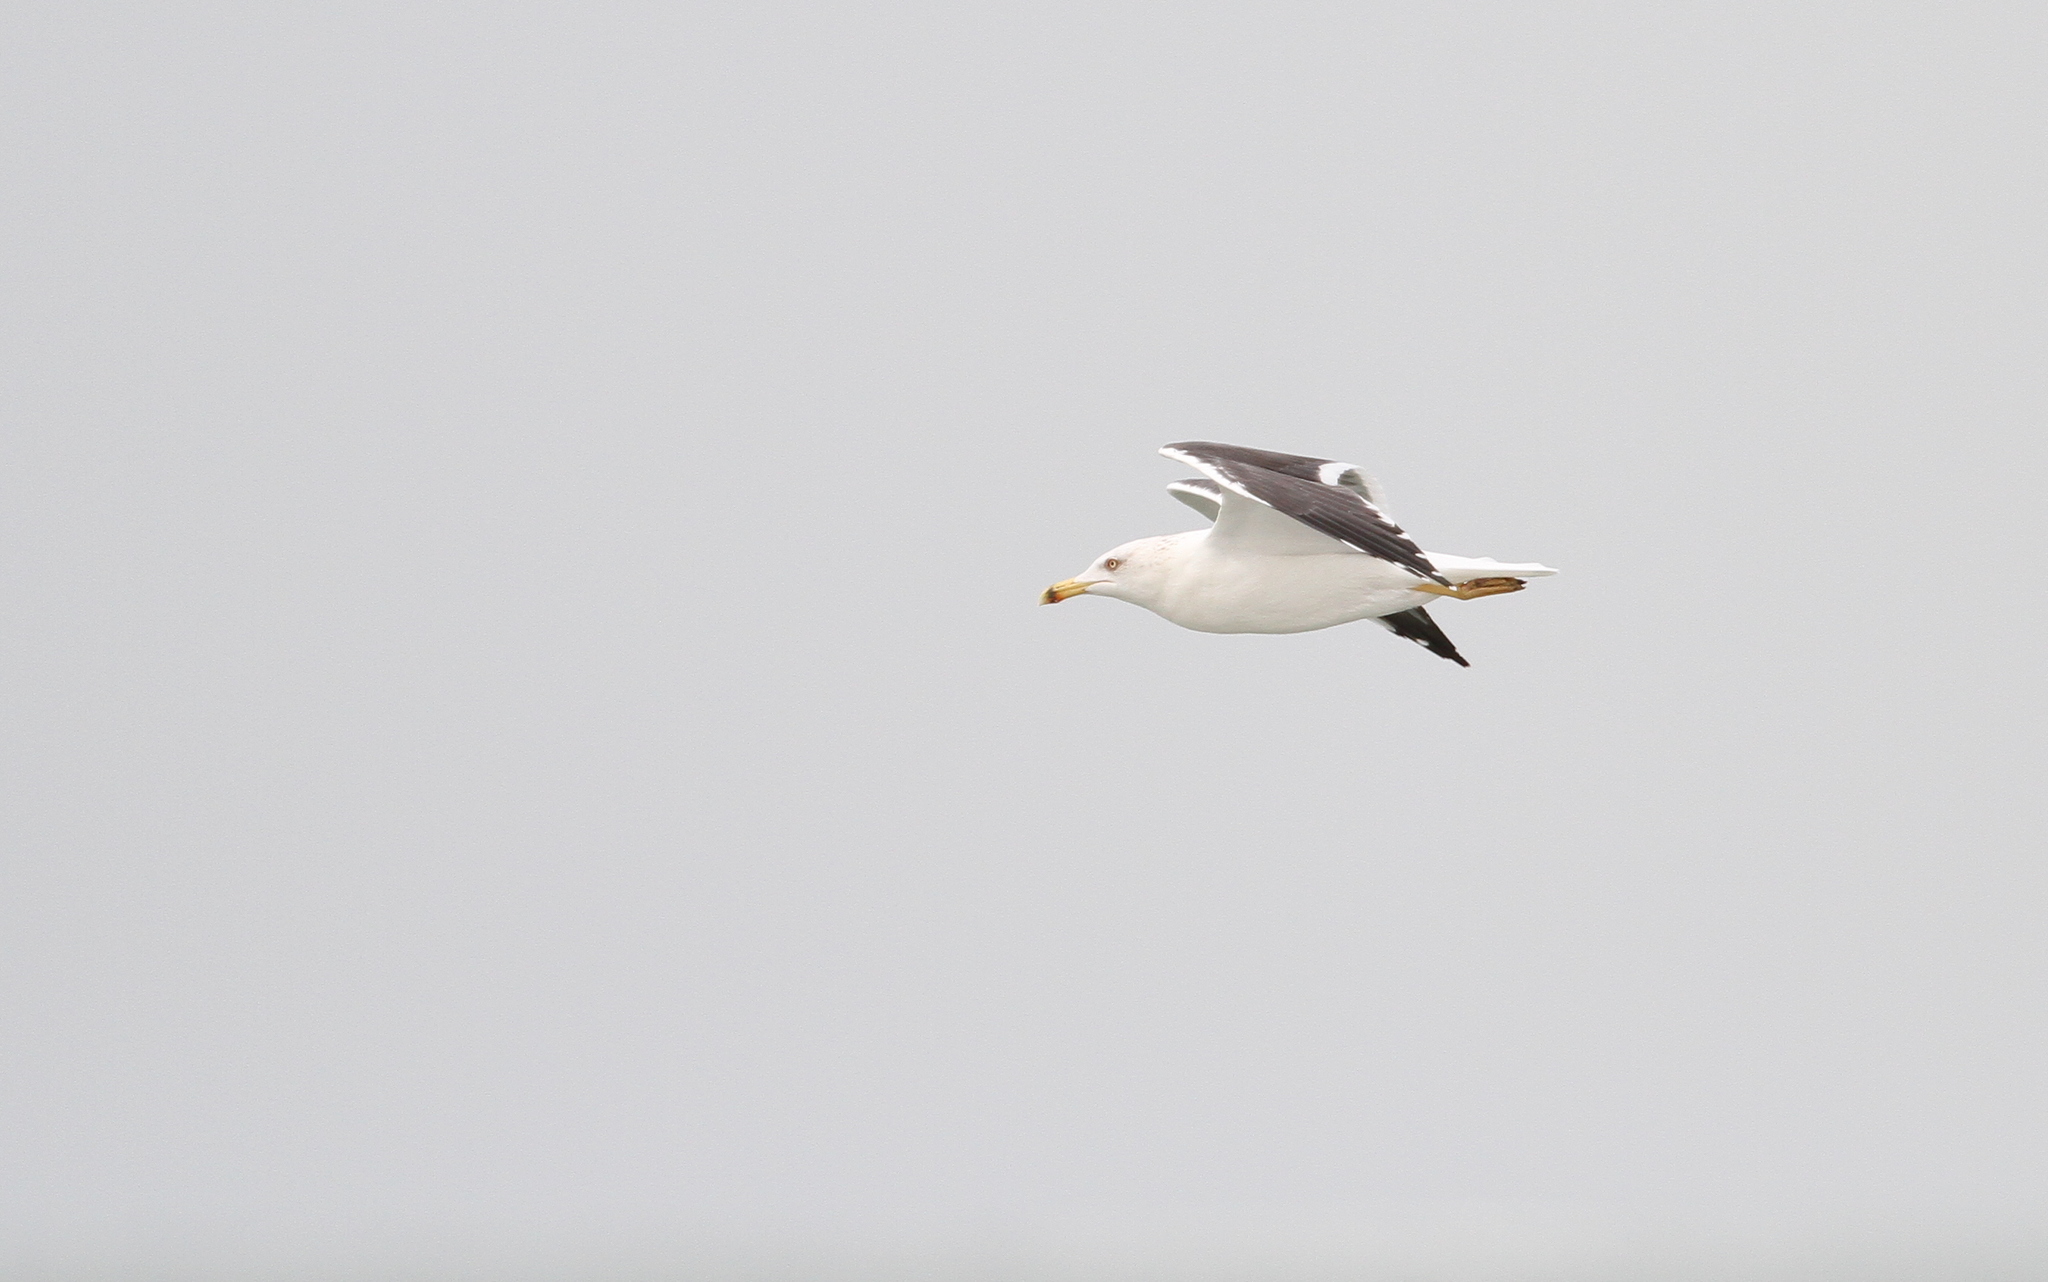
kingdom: Animalia
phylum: Chordata
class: Aves
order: Charadriiformes
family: Laridae
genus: Larus
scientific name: Larus fuscus
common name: Lesser black-backed gull
